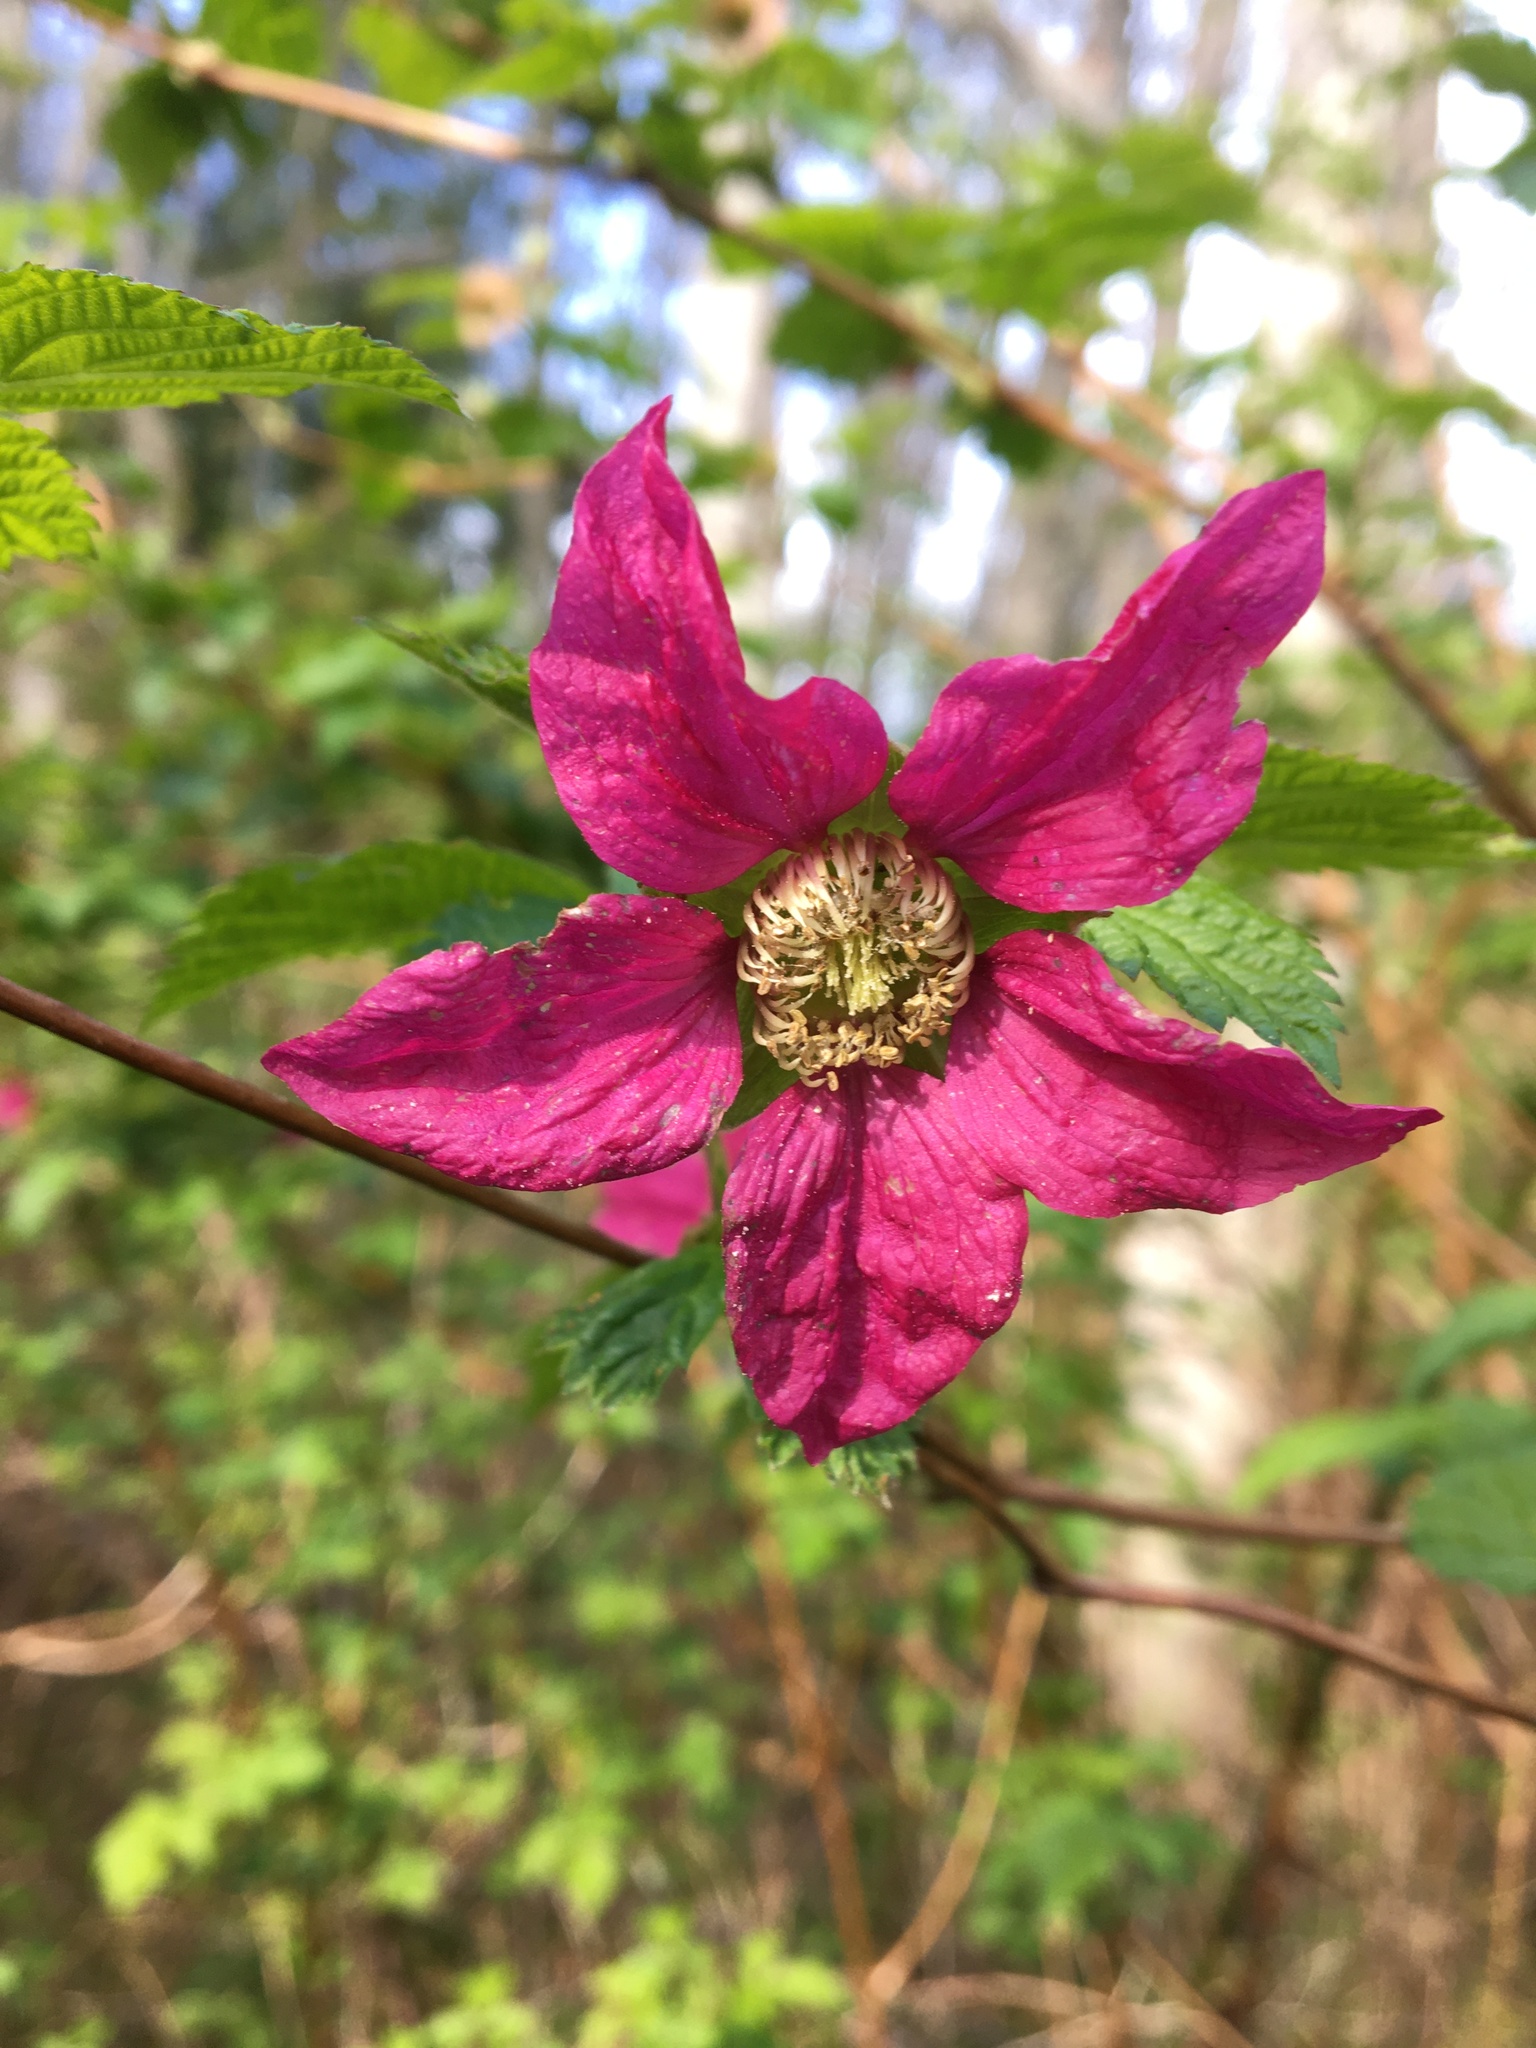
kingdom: Plantae
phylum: Tracheophyta
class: Magnoliopsida
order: Rosales
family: Rosaceae
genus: Rubus
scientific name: Rubus spectabilis
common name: Salmonberry
